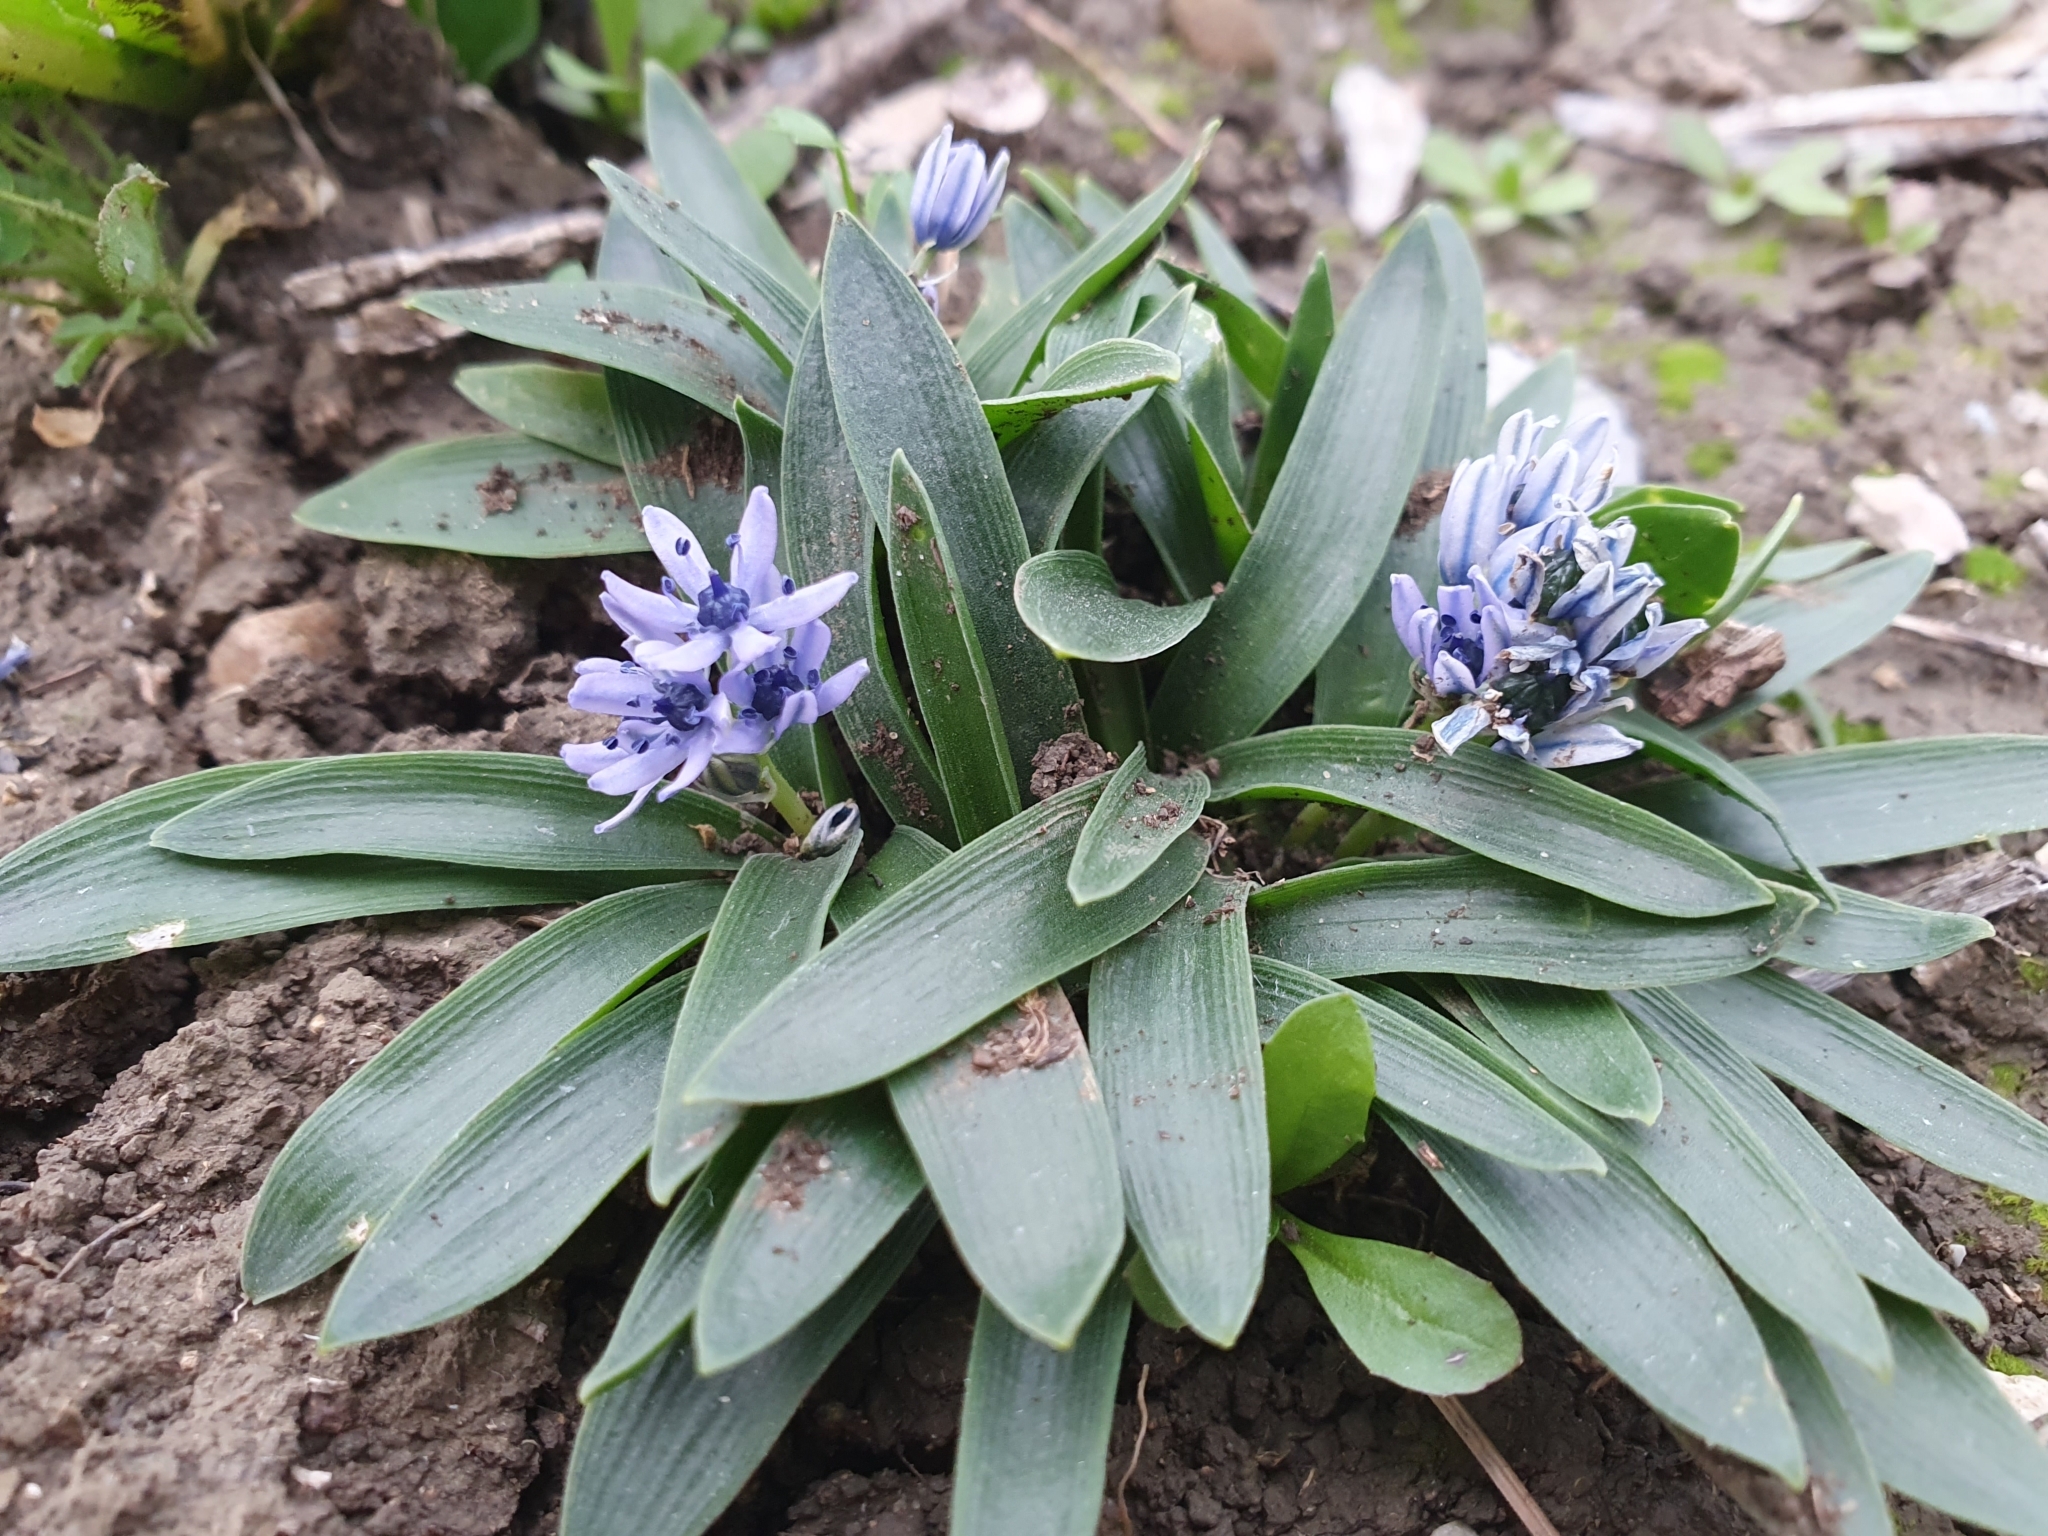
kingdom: Plantae
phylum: Tracheophyta
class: Liliopsida
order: Asparagales
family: Asparagaceae
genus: Hyacinthoides
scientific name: Hyacinthoides lingulata
